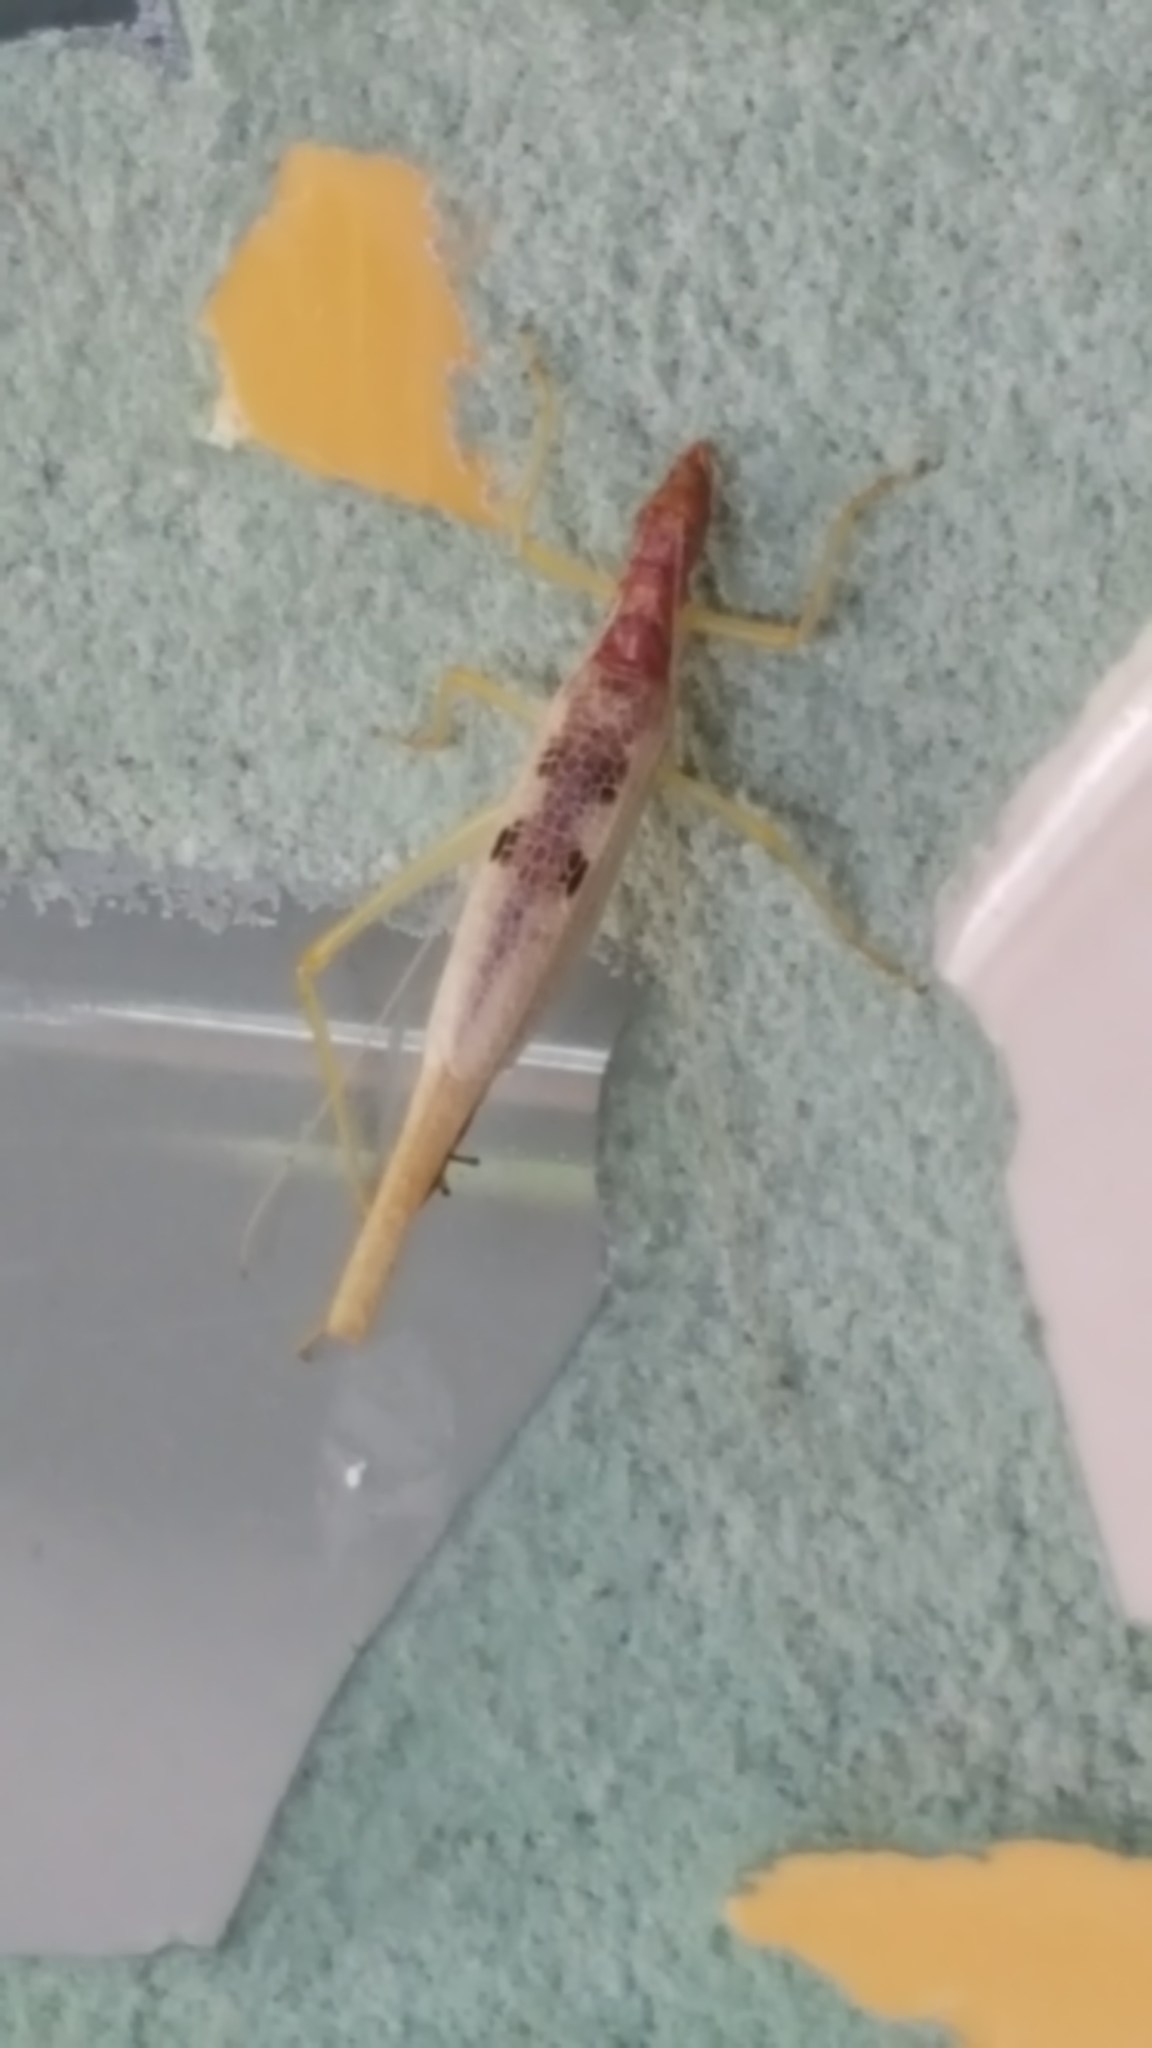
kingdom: Animalia
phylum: Arthropoda
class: Insecta
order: Orthoptera
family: Gryllidae
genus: Neoxabea
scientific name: Neoxabea bipunctata
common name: Two-spotted tree cricket
